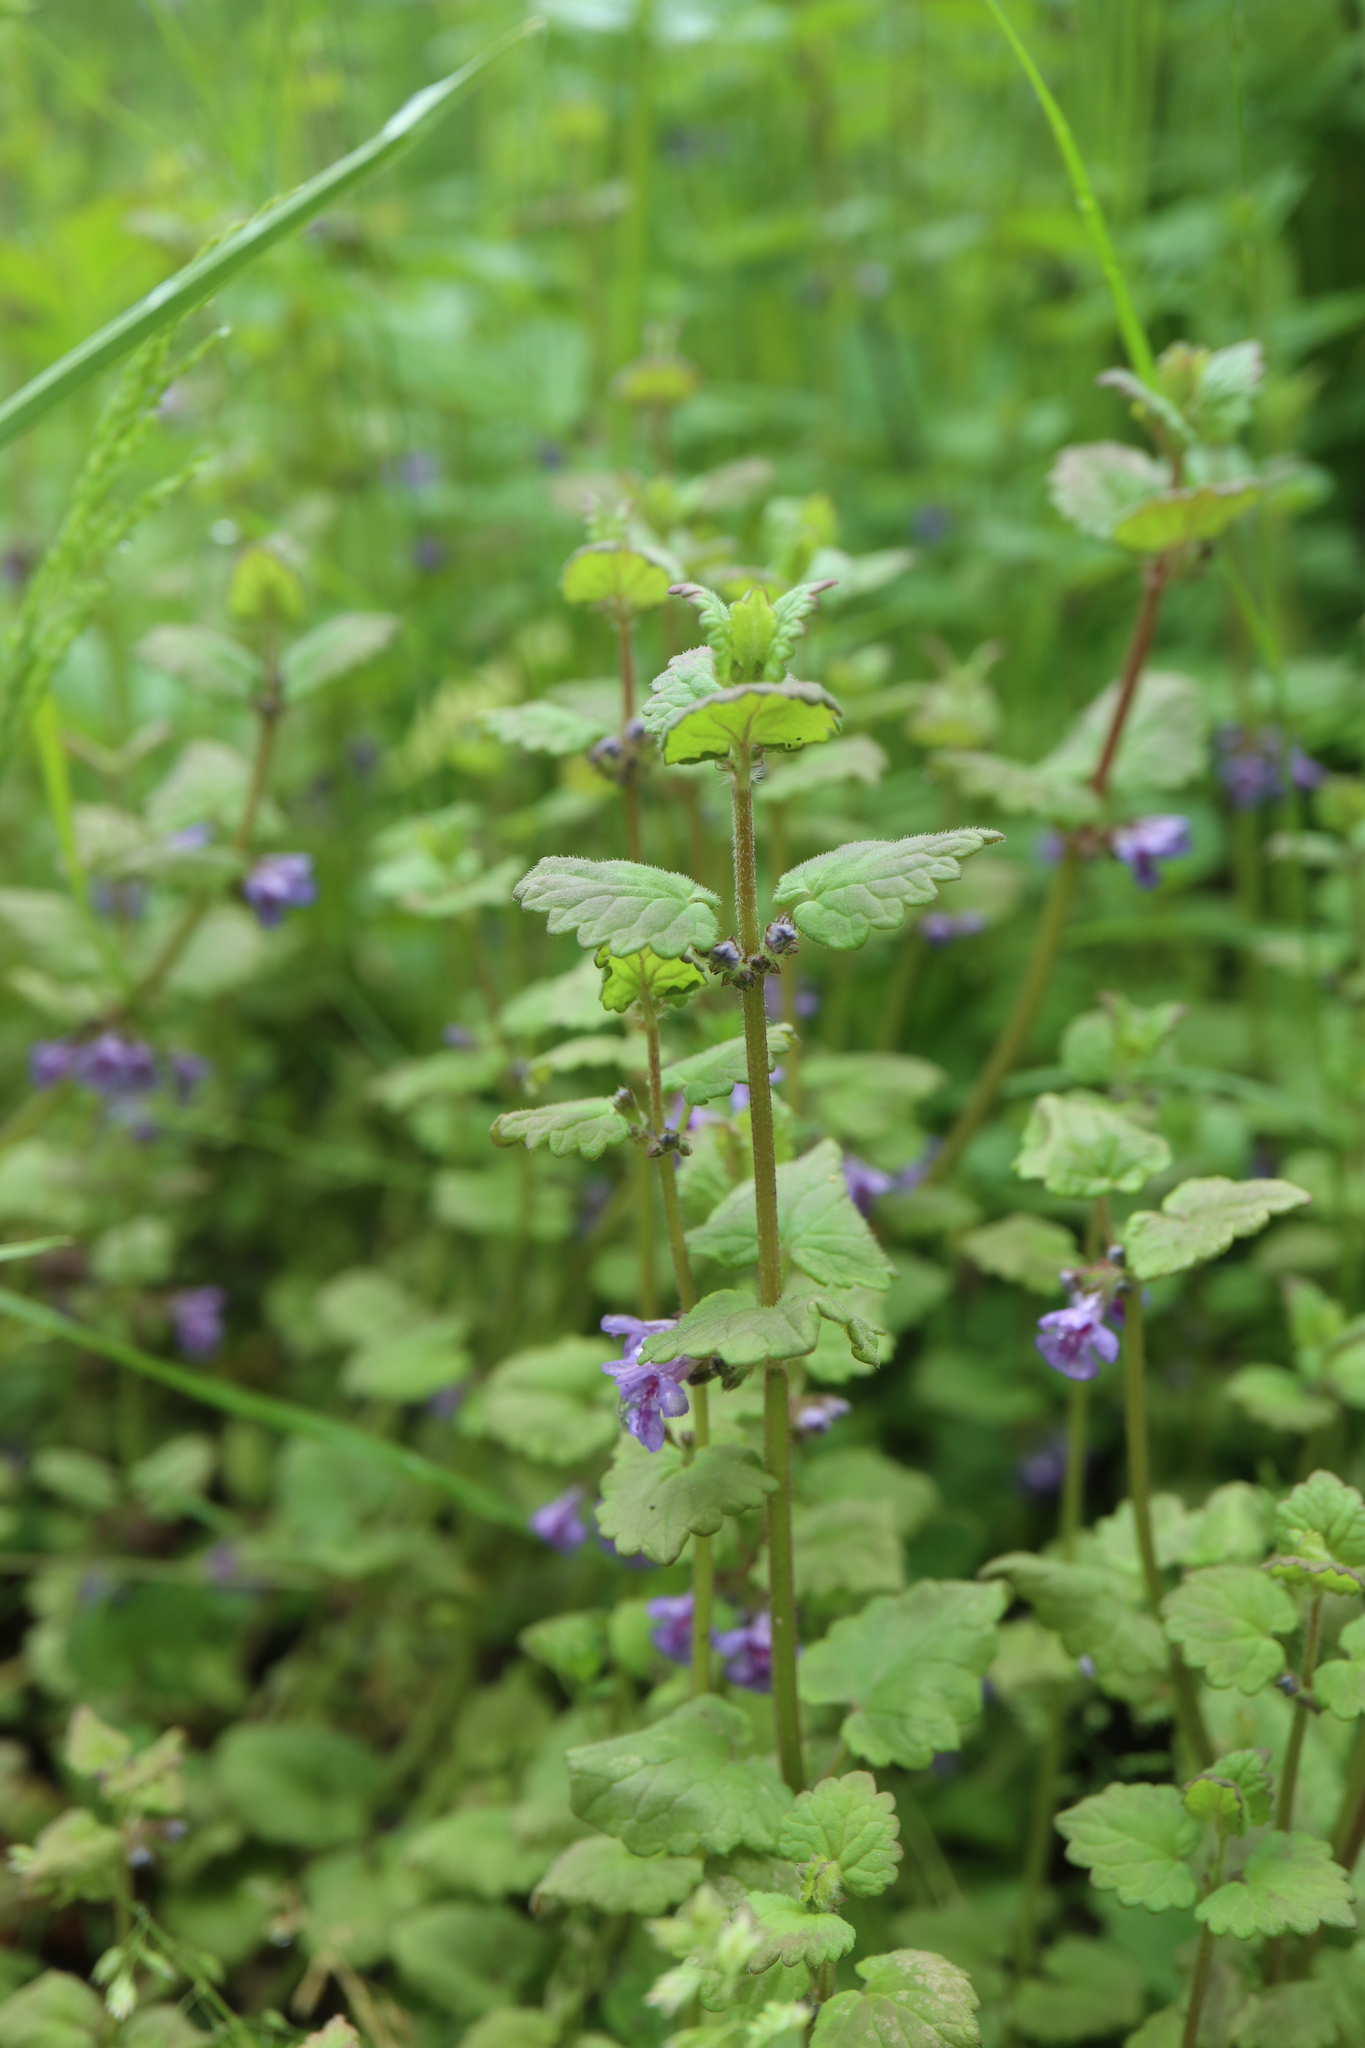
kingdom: Plantae
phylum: Tracheophyta
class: Magnoliopsida
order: Lamiales
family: Lamiaceae
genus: Glechoma
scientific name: Glechoma hederacea
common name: Ground ivy
